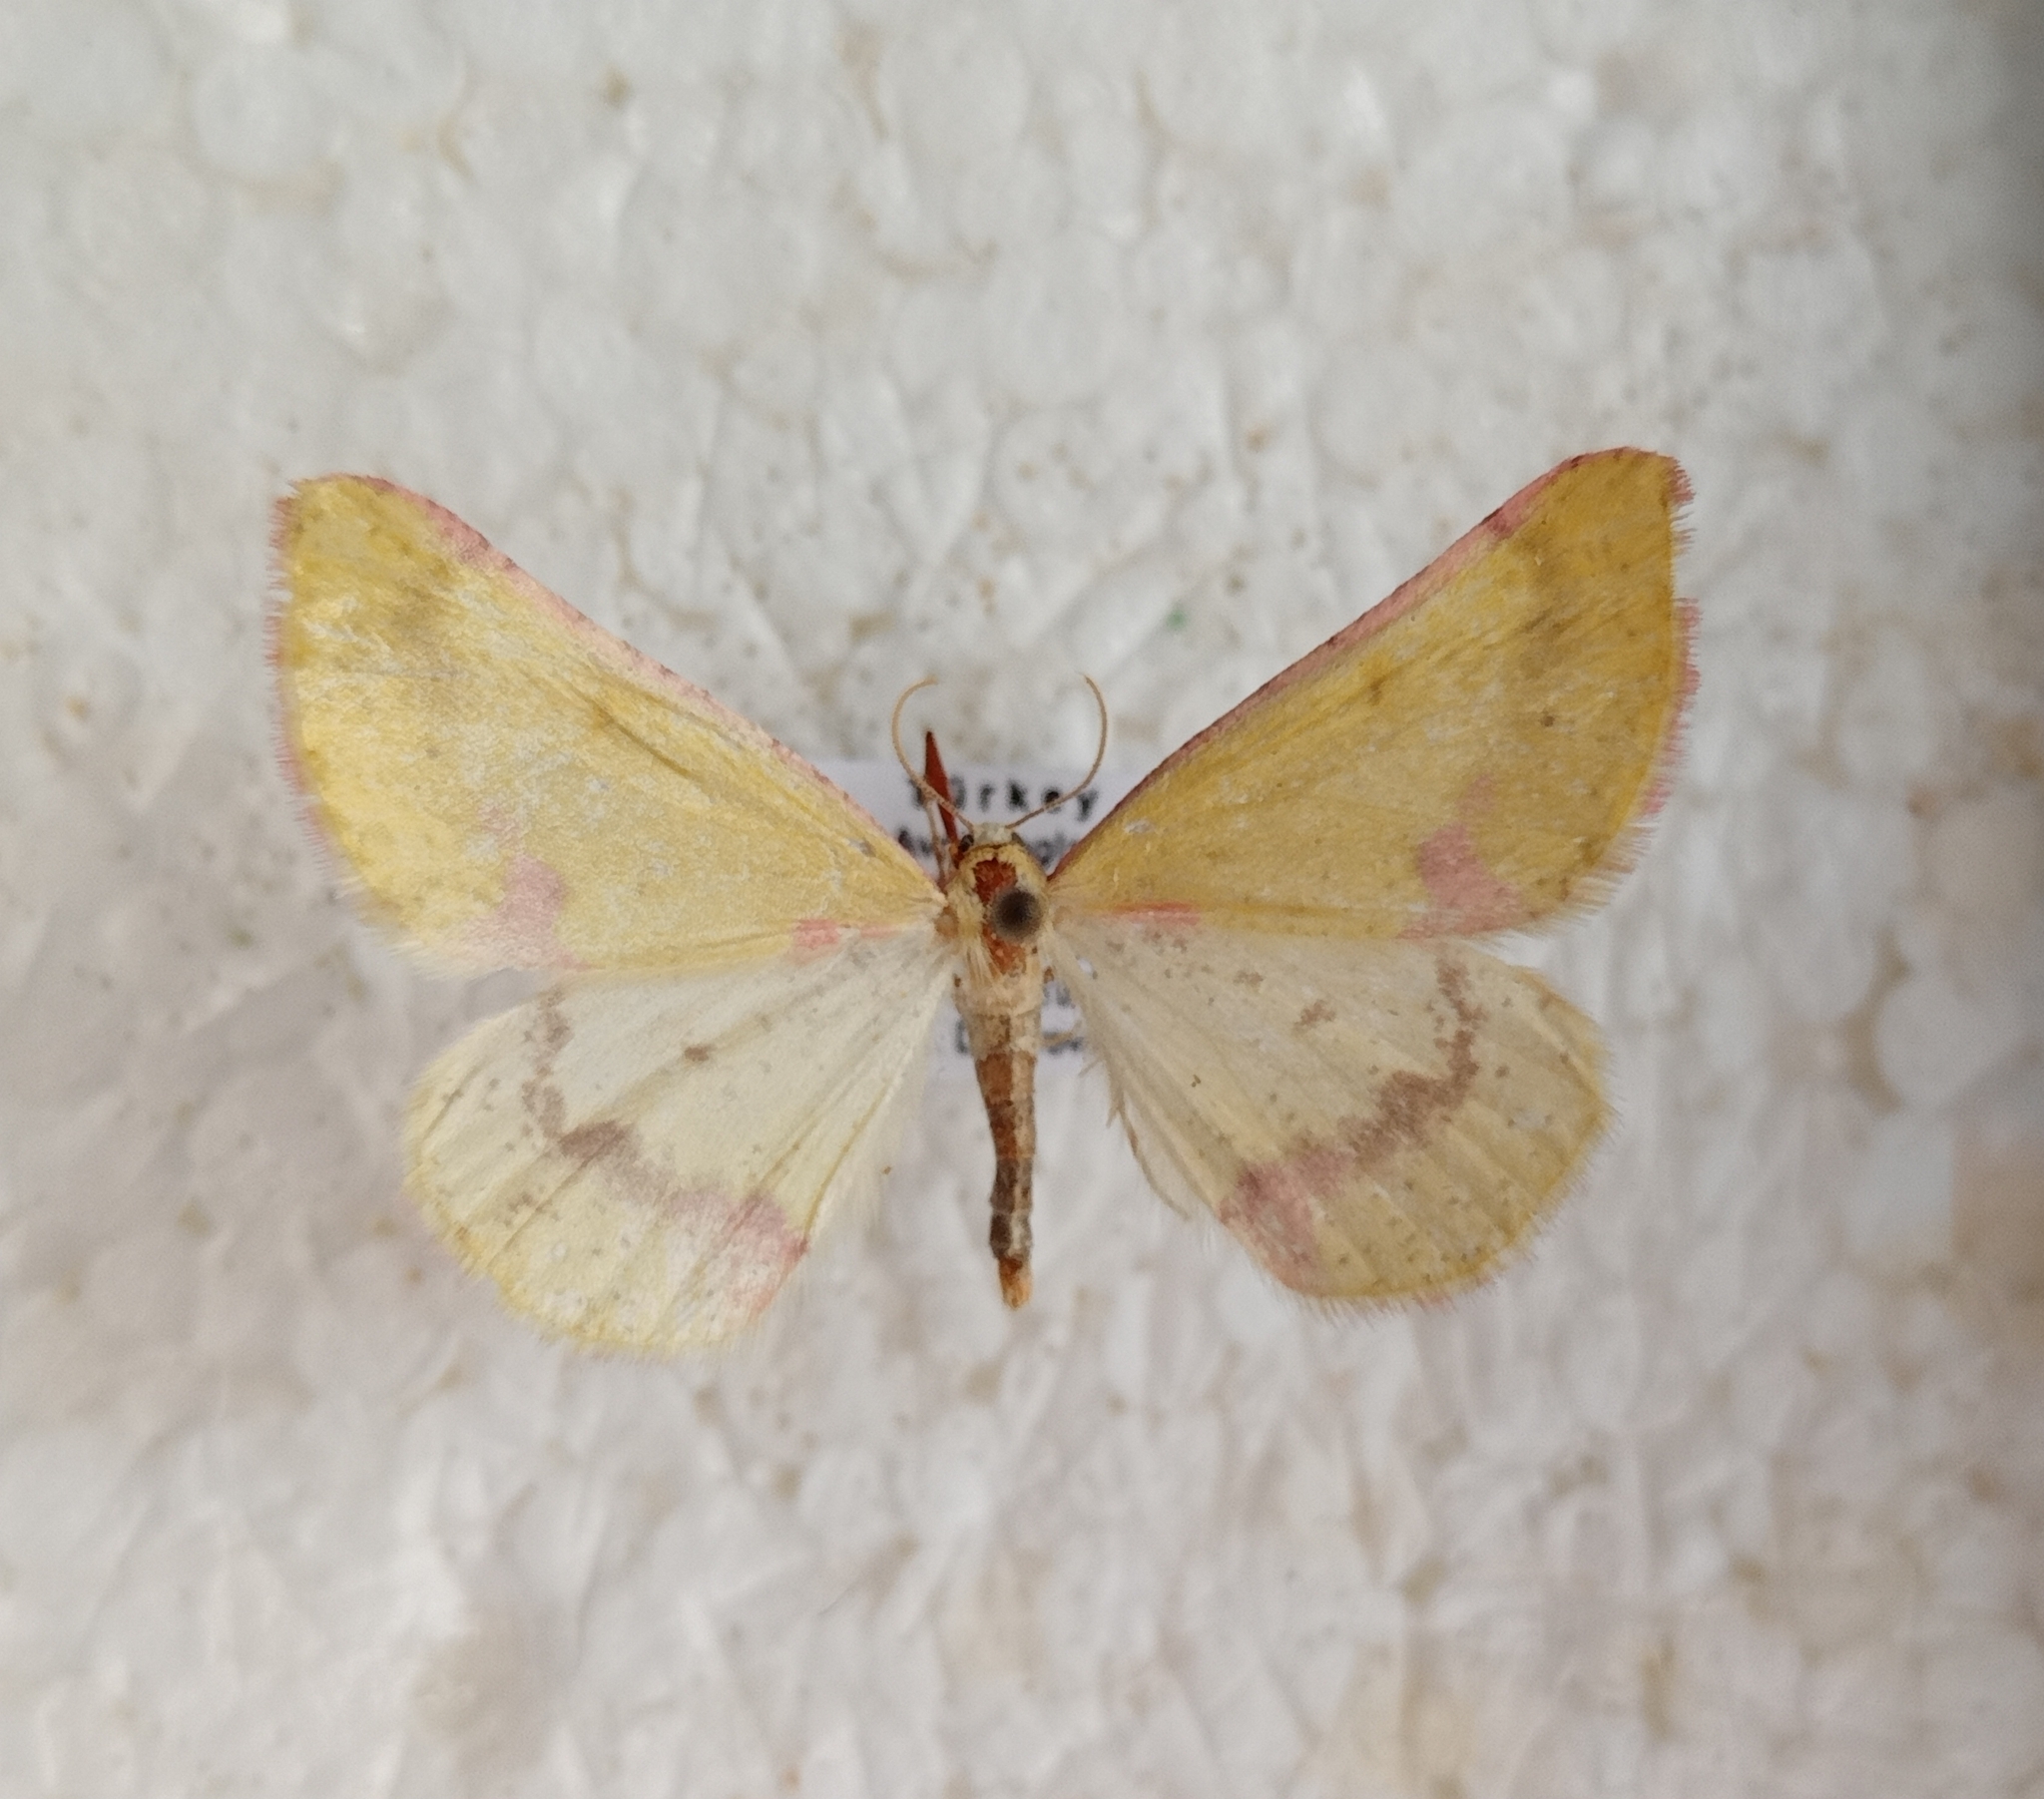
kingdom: Animalia
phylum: Arthropoda
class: Insecta
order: Lepidoptera
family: Geometridae
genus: Enanthyperythra
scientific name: Enanthyperythra legataria
